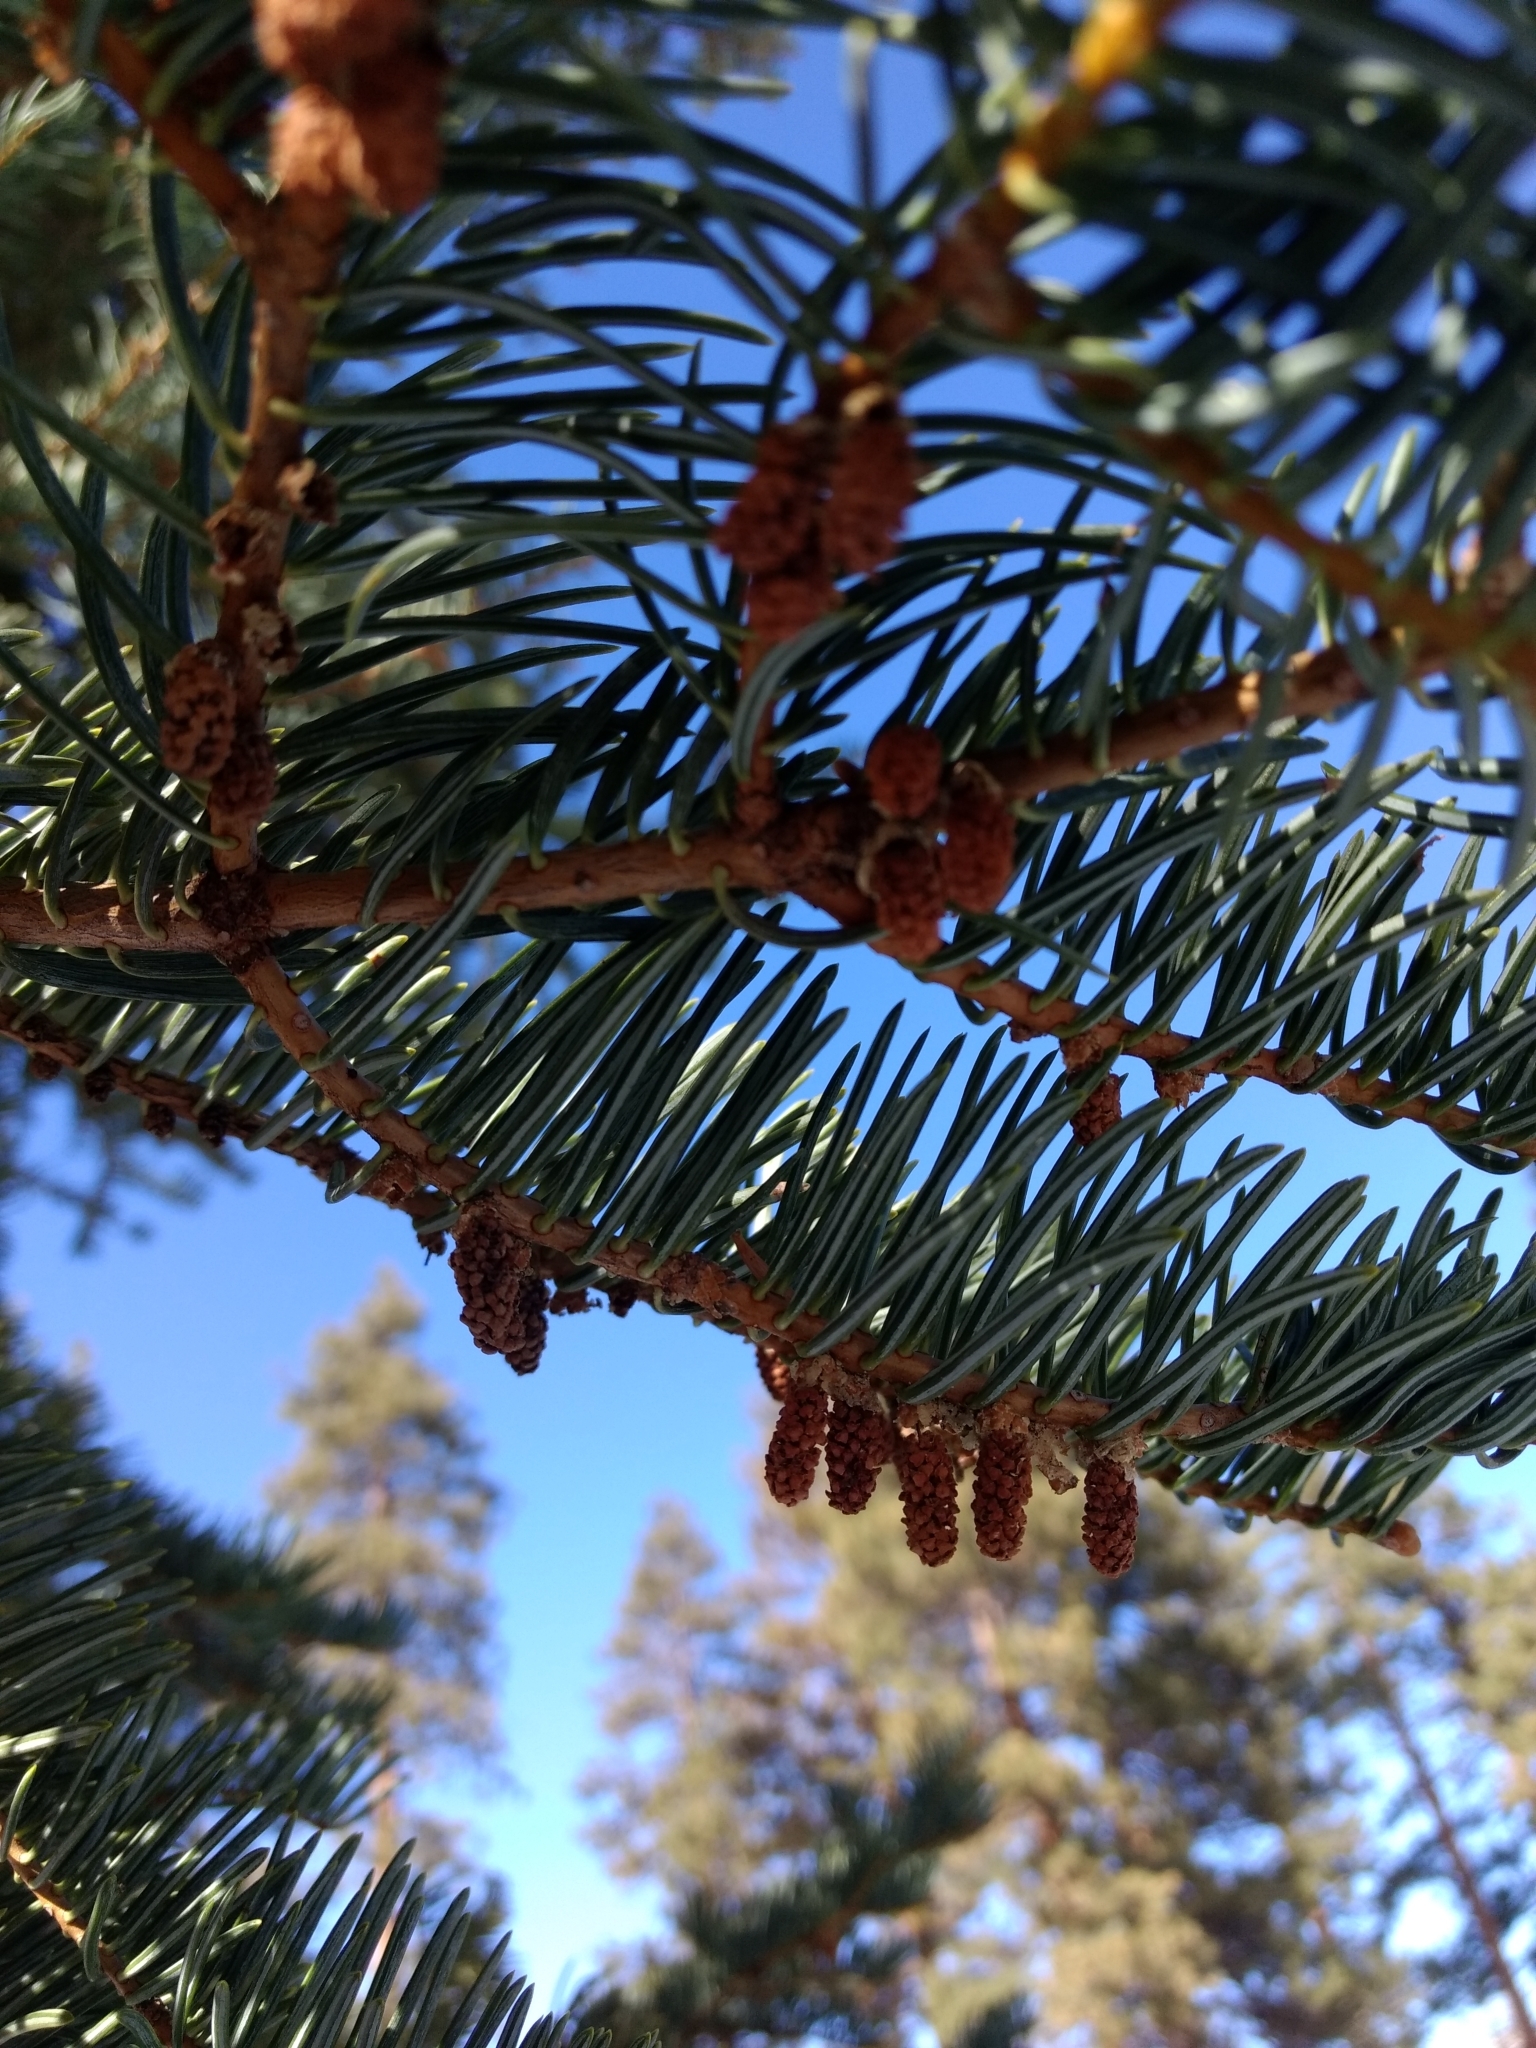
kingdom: Plantae
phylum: Tracheophyta
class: Pinopsida
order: Pinales
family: Pinaceae
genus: Abies
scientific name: Abies concolor
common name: Colorado fir
